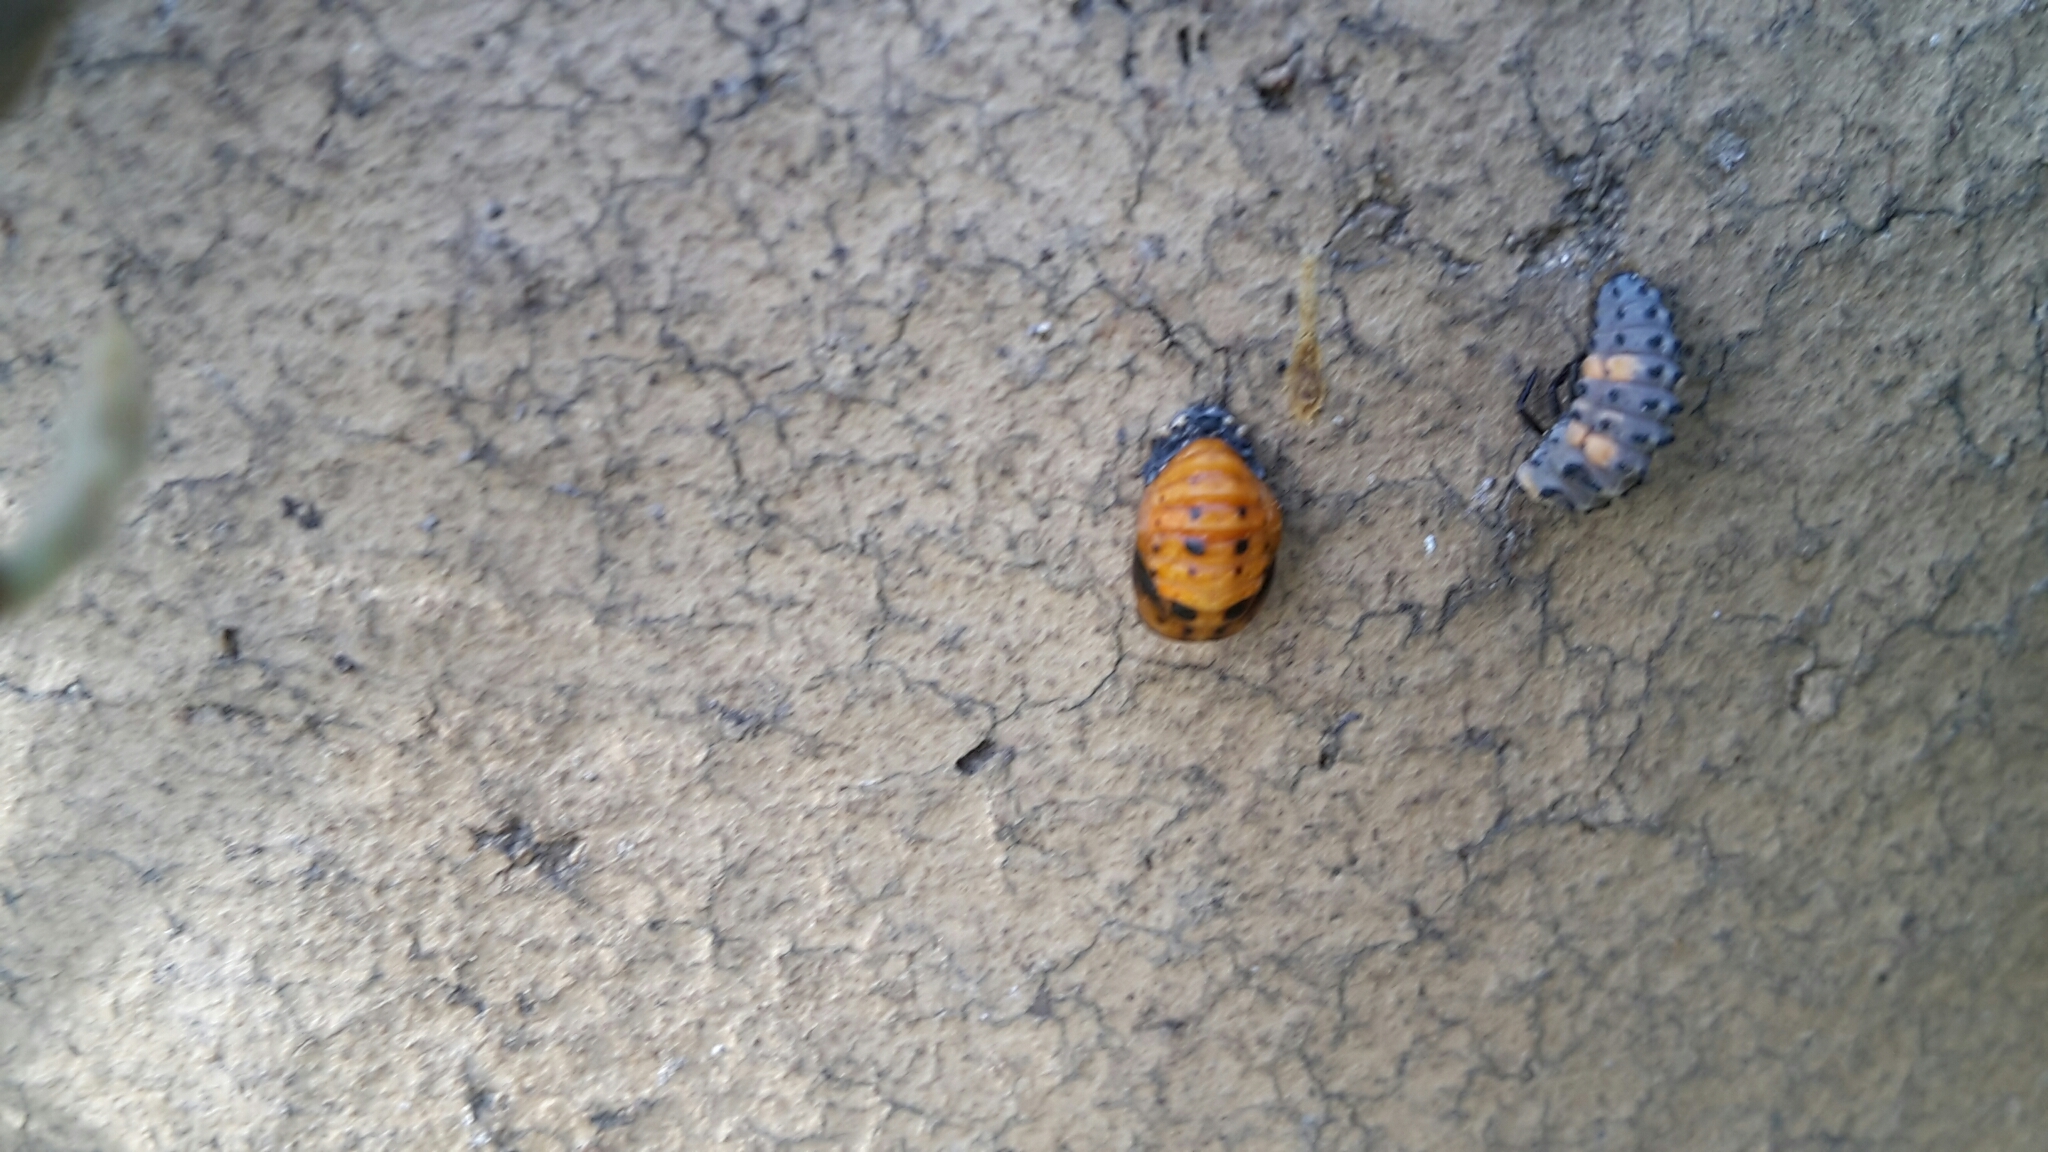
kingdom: Animalia
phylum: Arthropoda
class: Insecta
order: Coleoptera
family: Coccinellidae
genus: Coccinella
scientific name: Coccinella septempunctata
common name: Sevenspotted lady beetle
